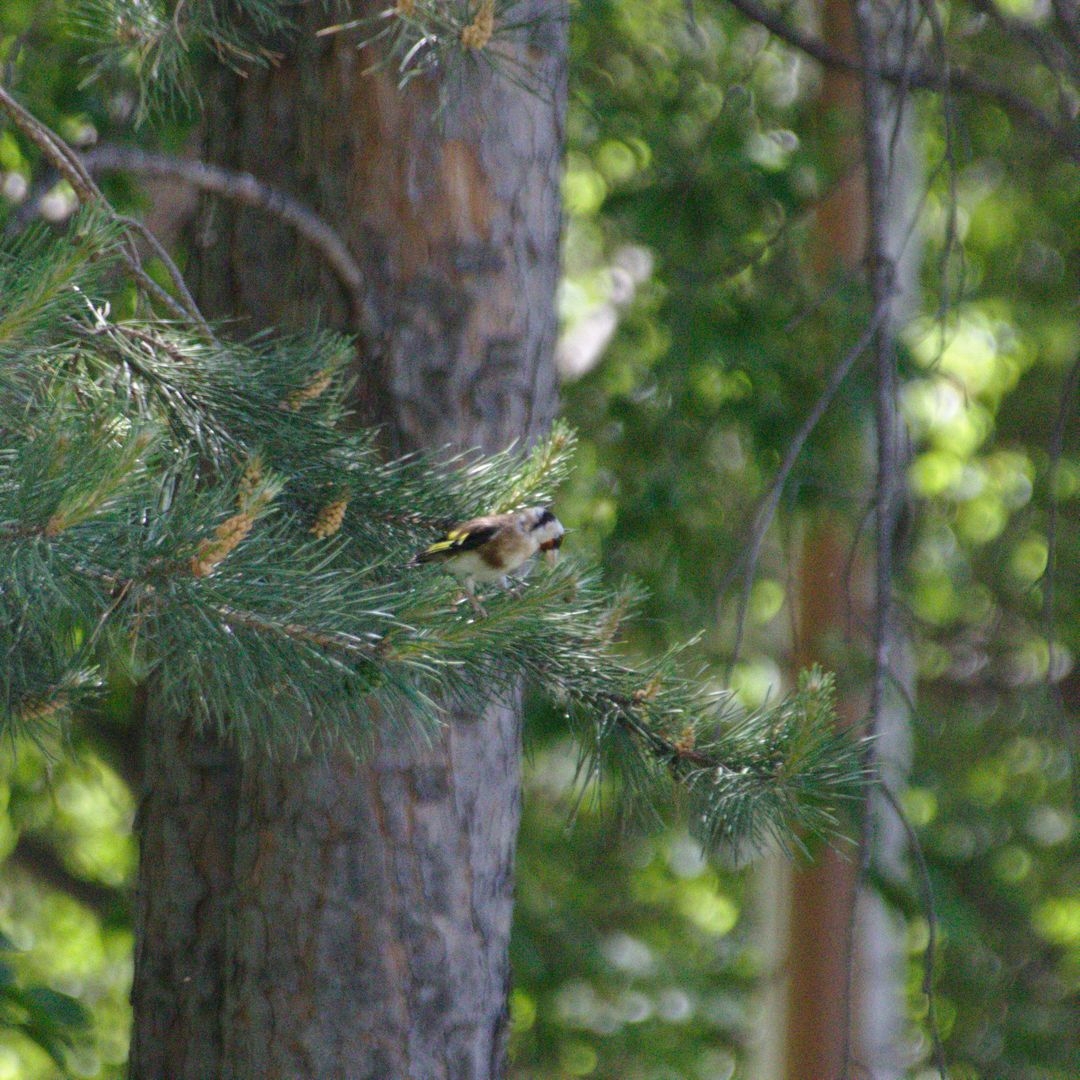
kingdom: Animalia
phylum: Chordata
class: Aves
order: Passeriformes
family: Fringillidae
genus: Carduelis
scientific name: Carduelis carduelis
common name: European goldfinch
